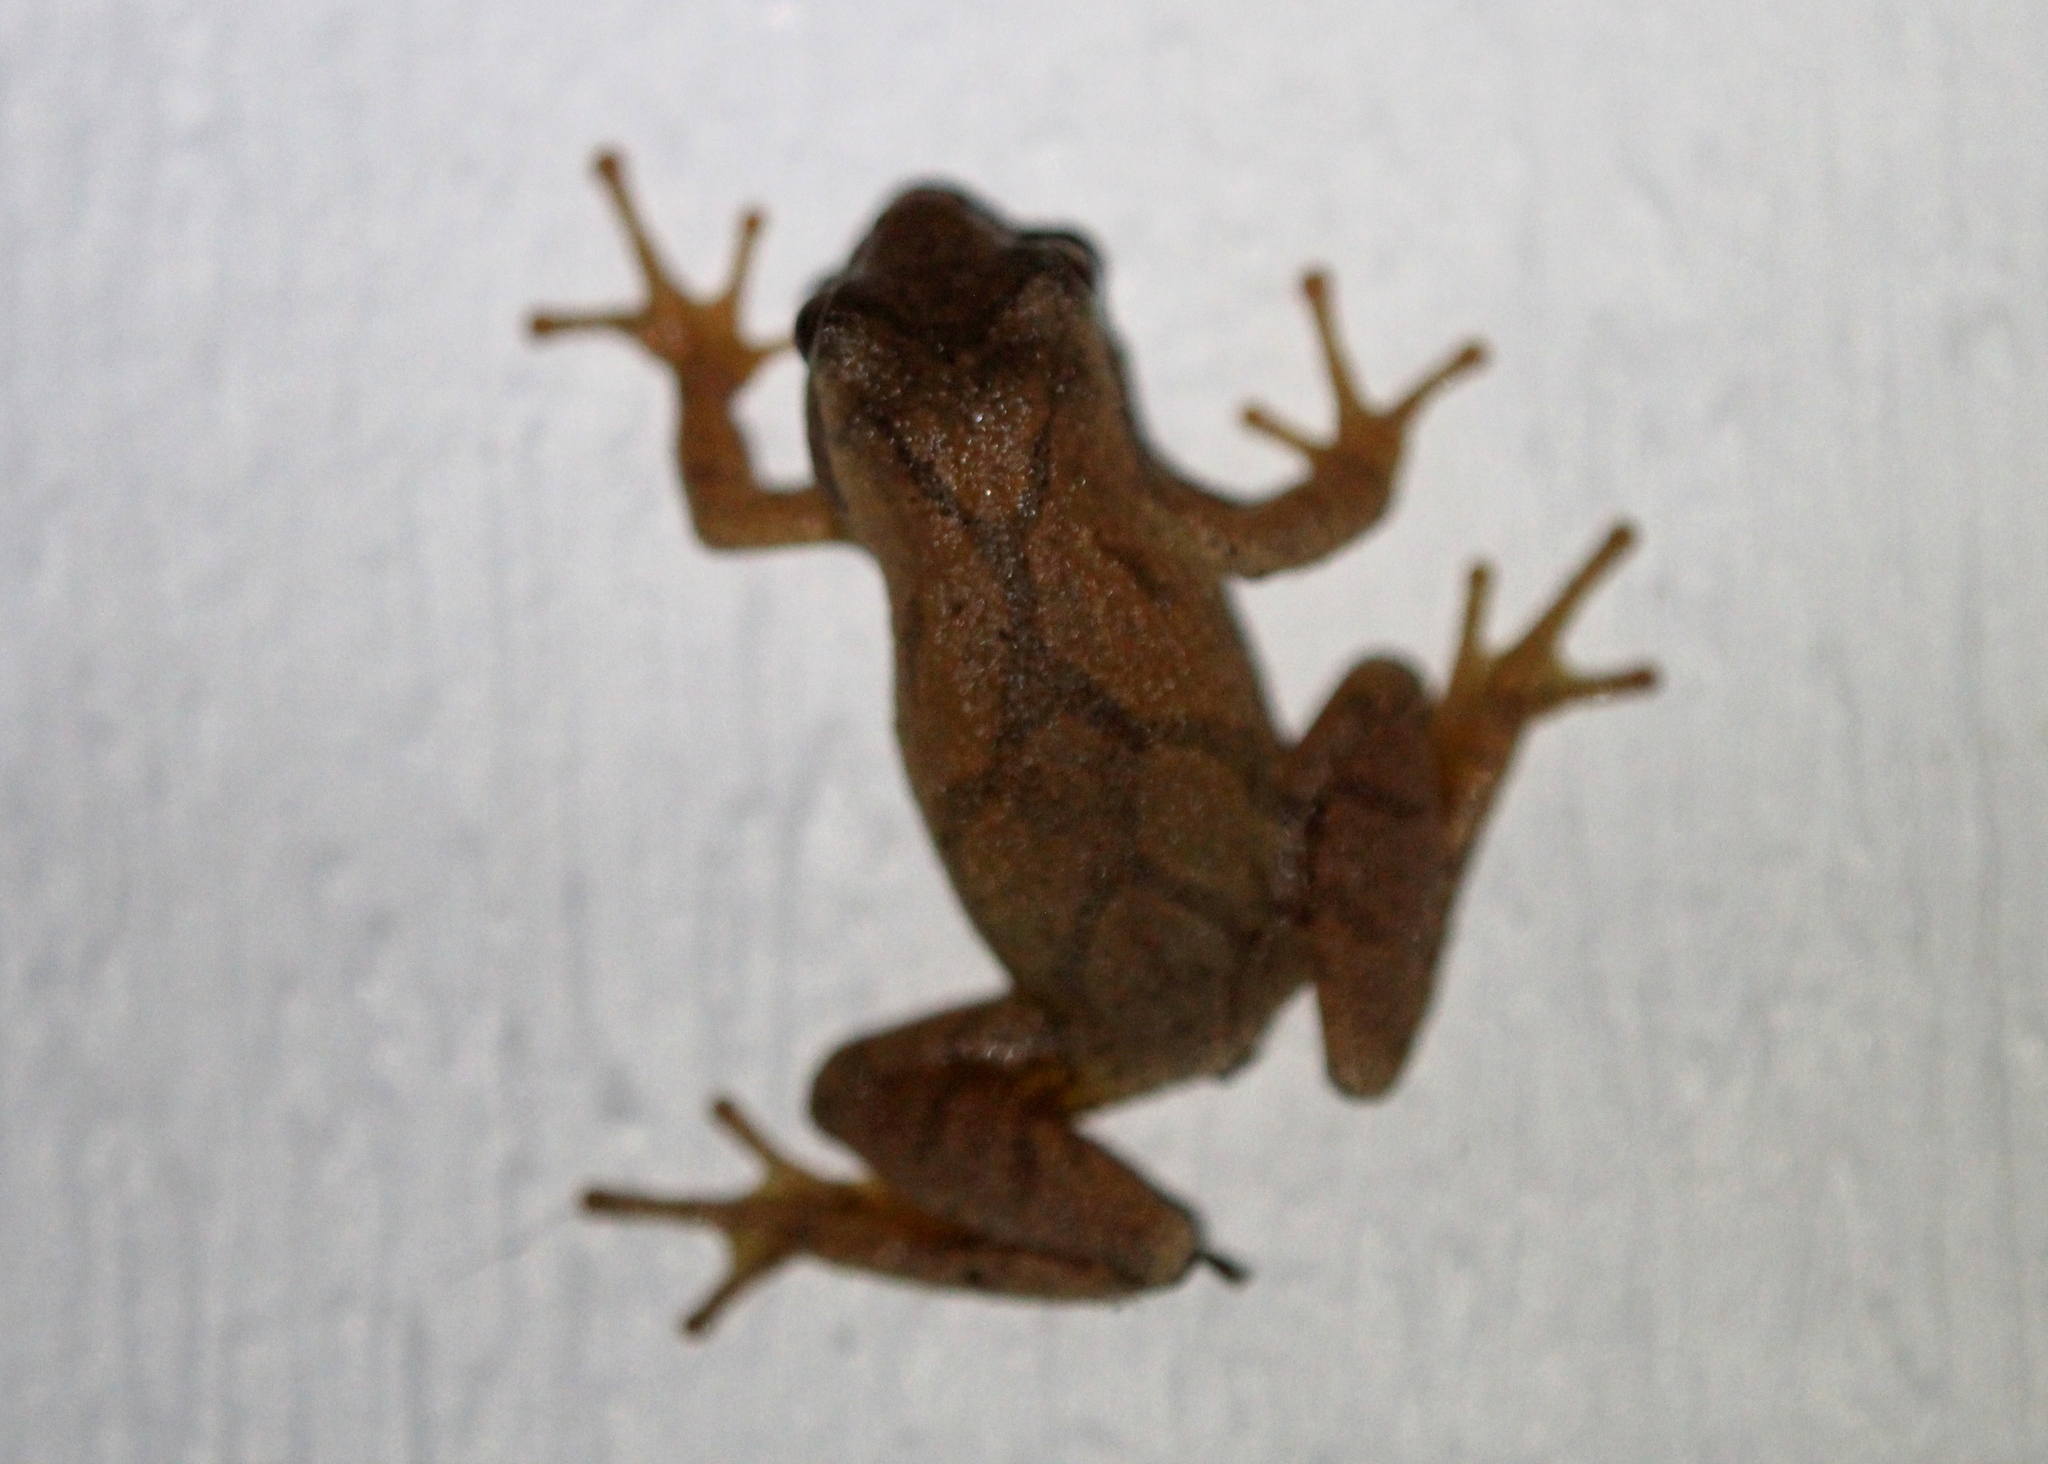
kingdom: Animalia
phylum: Chordata
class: Amphibia
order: Anura
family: Hylidae
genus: Pseudacris
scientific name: Pseudacris crucifer
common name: Spring peeper
